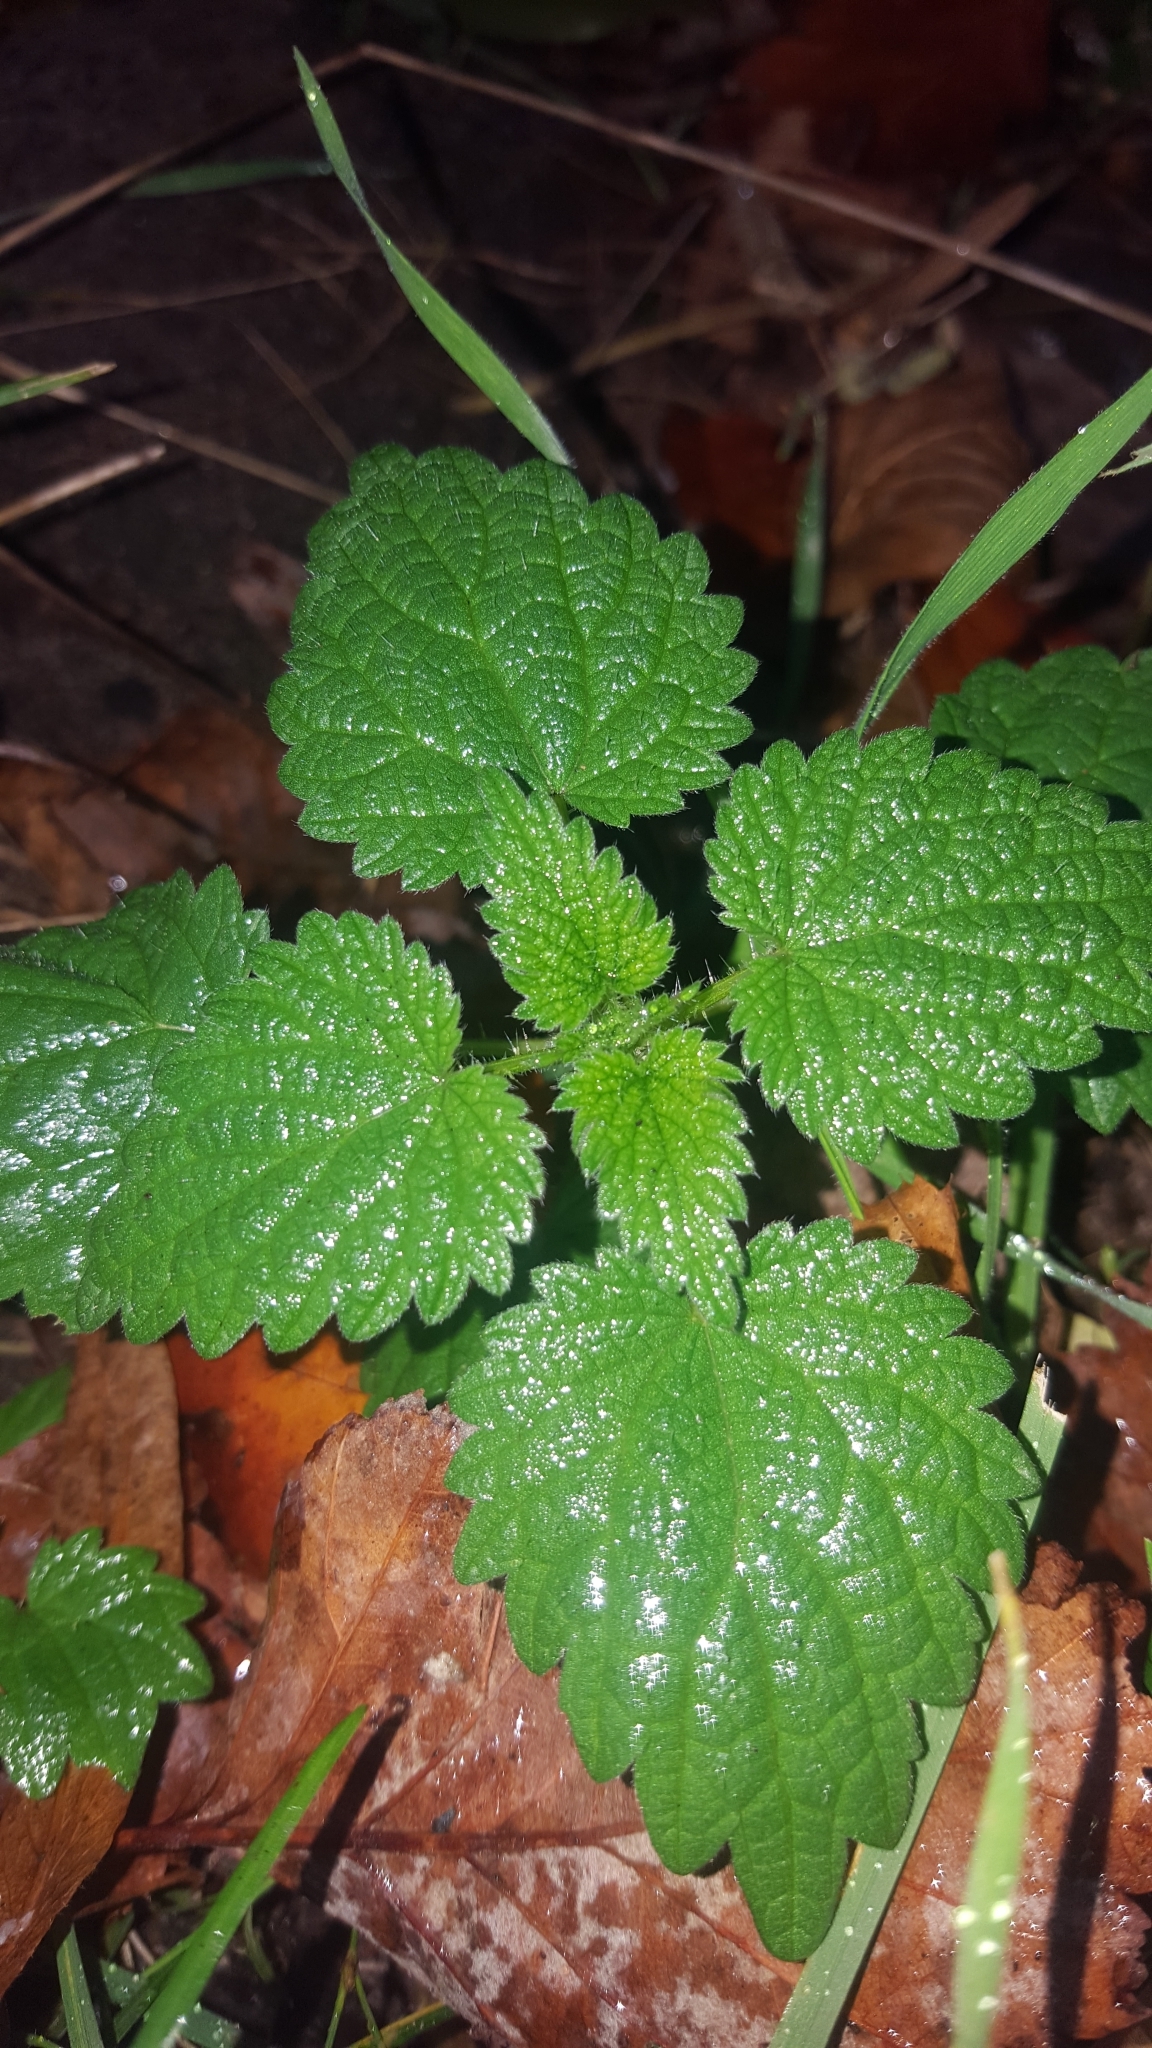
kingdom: Plantae
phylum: Tracheophyta
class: Magnoliopsida
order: Rosales
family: Urticaceae
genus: Urtica
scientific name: Urtica dioica
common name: Common nettle
